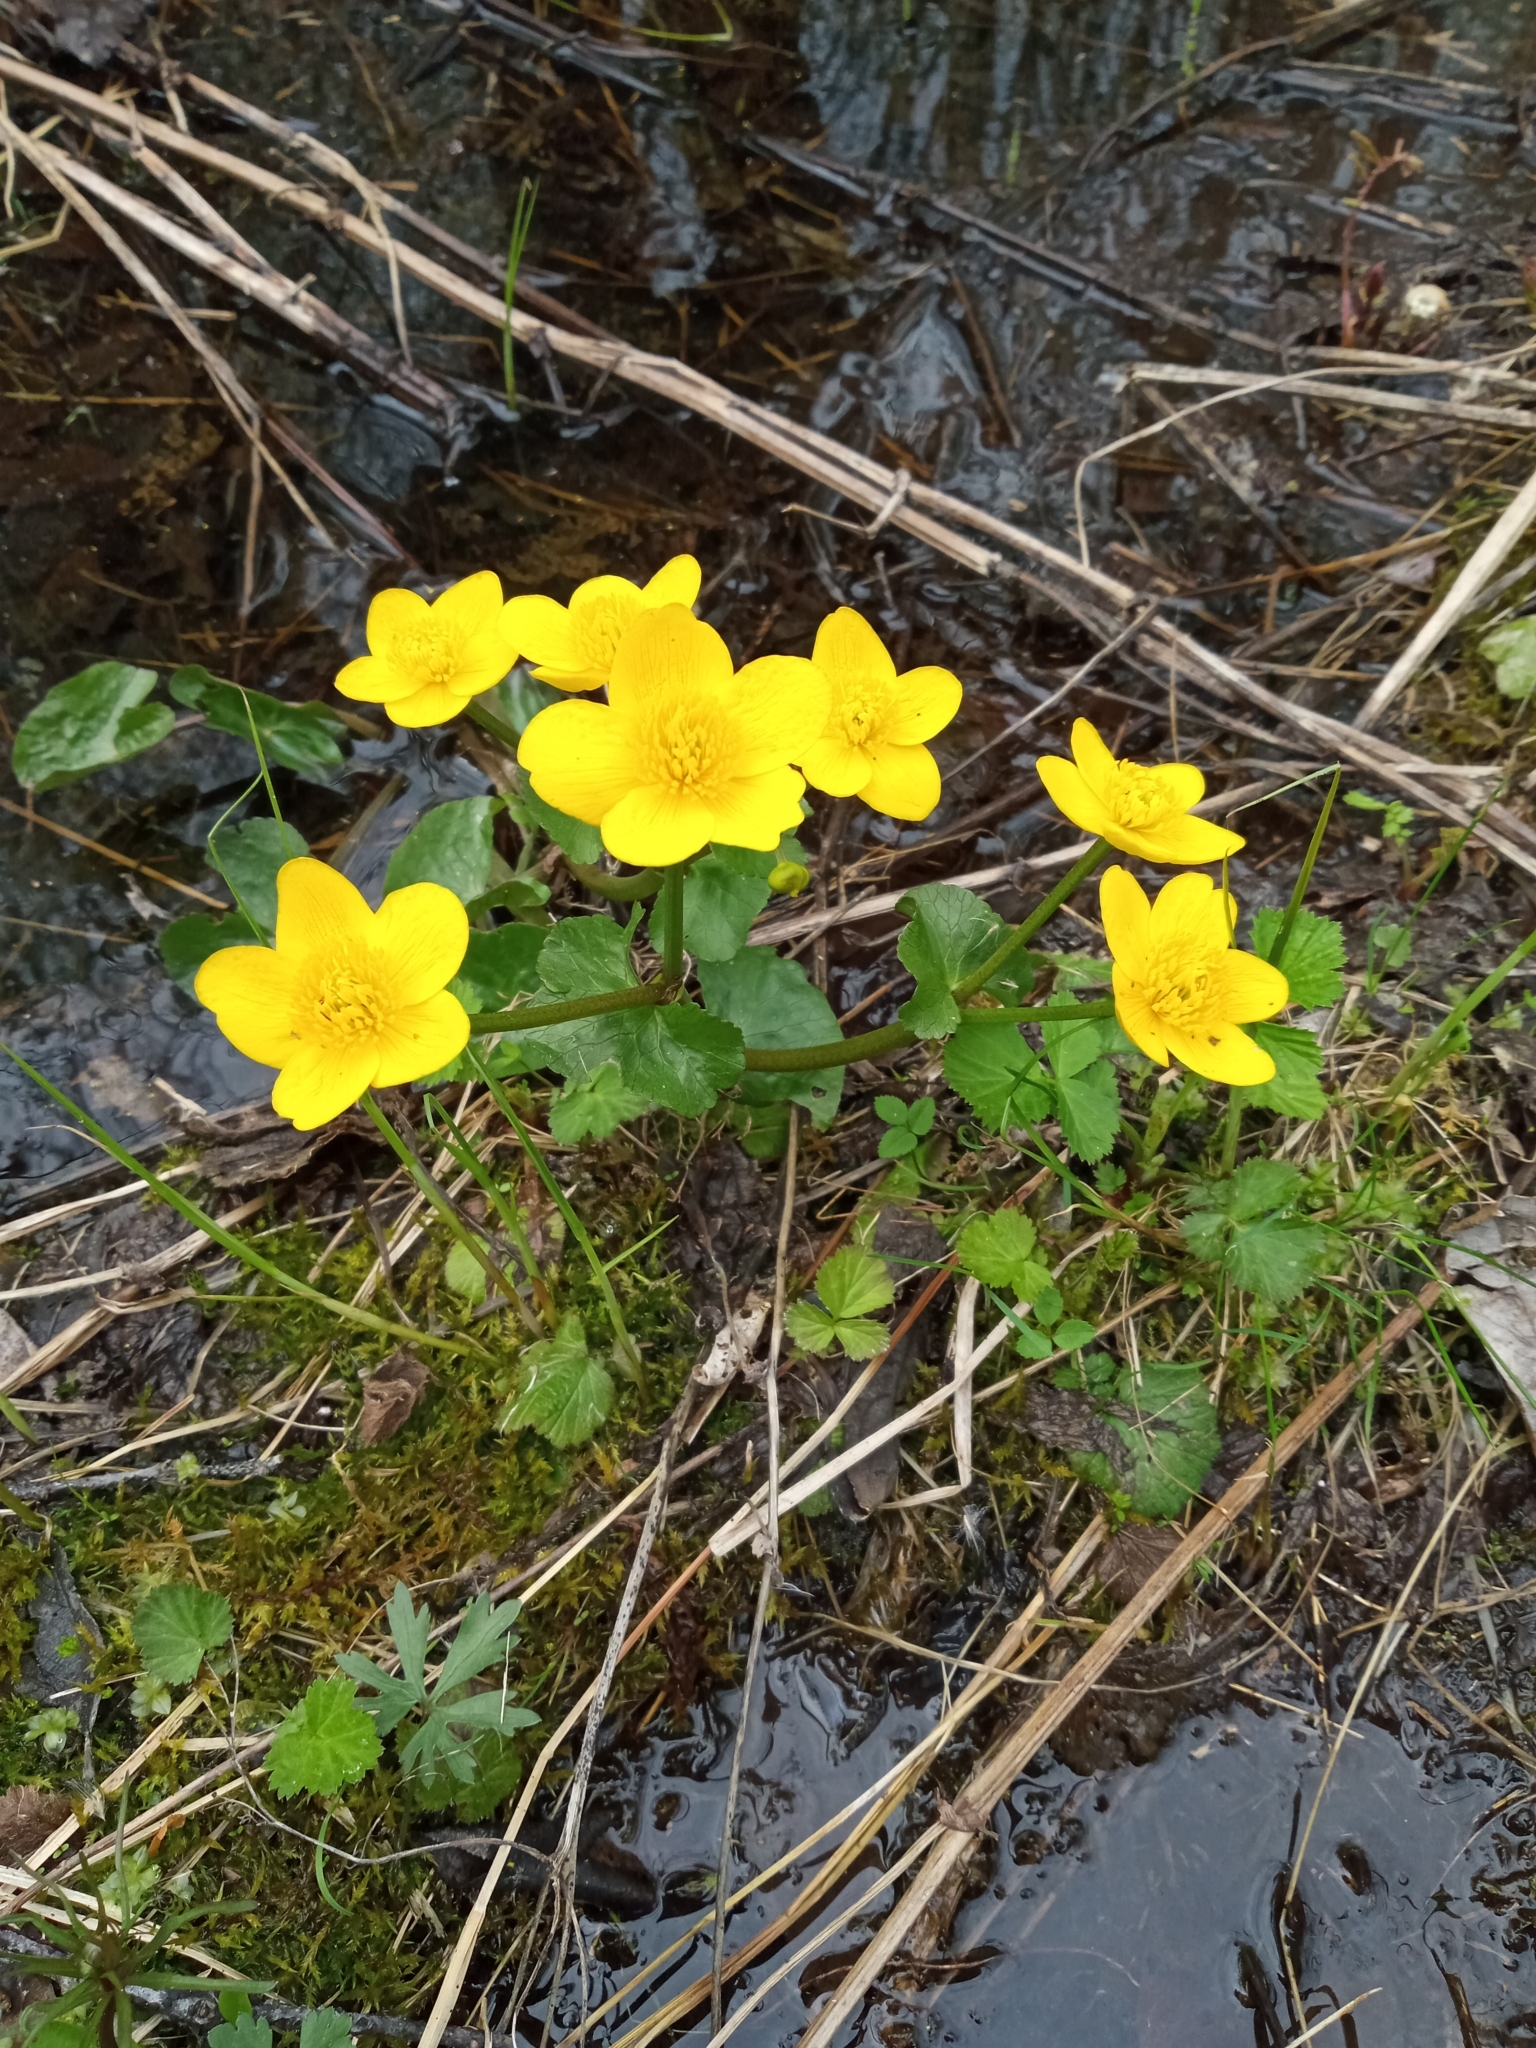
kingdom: Plantae
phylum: Tracheophyta
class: Magnoliopsida
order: Ranunculales
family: Ranunculaceae
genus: Caltha
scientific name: Caltha palustris
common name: Marsh marigold
